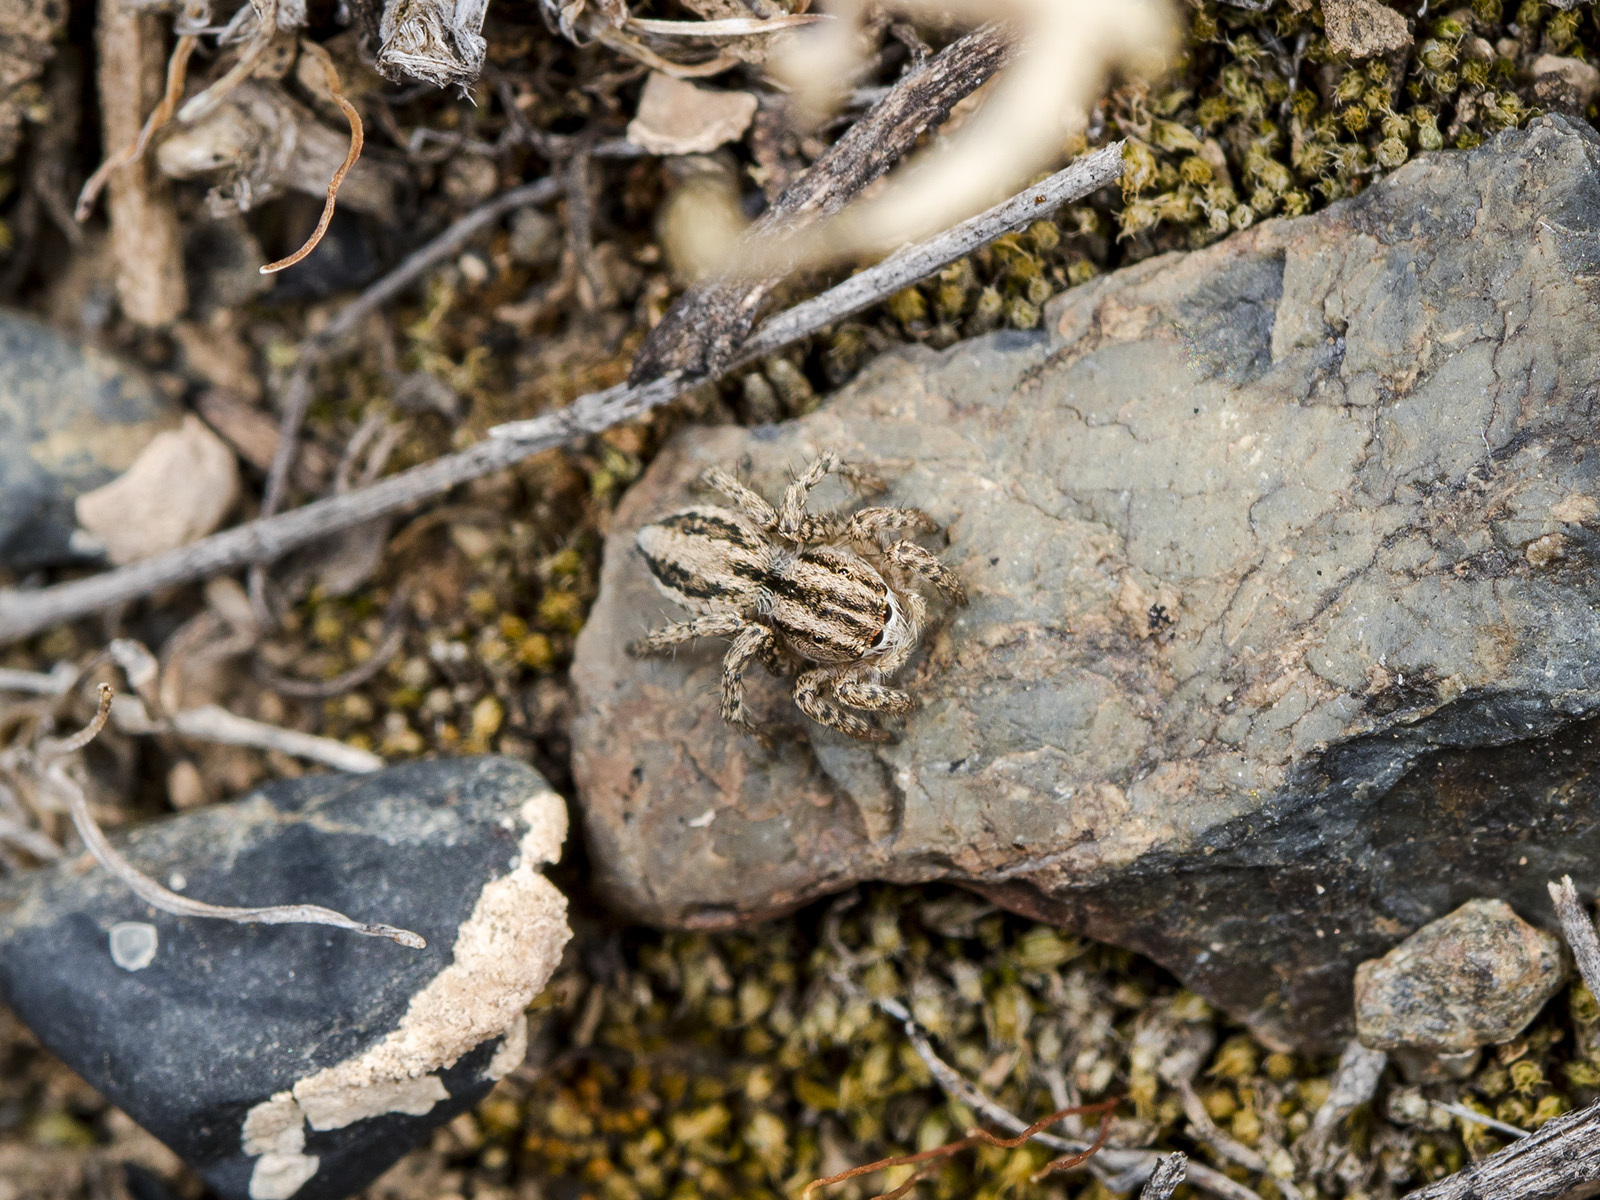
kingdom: Animalia
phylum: Arthropoda
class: Arachnida
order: Araneae
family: Salticidae
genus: Aelurillus
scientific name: Aelurillus m-nigrum
